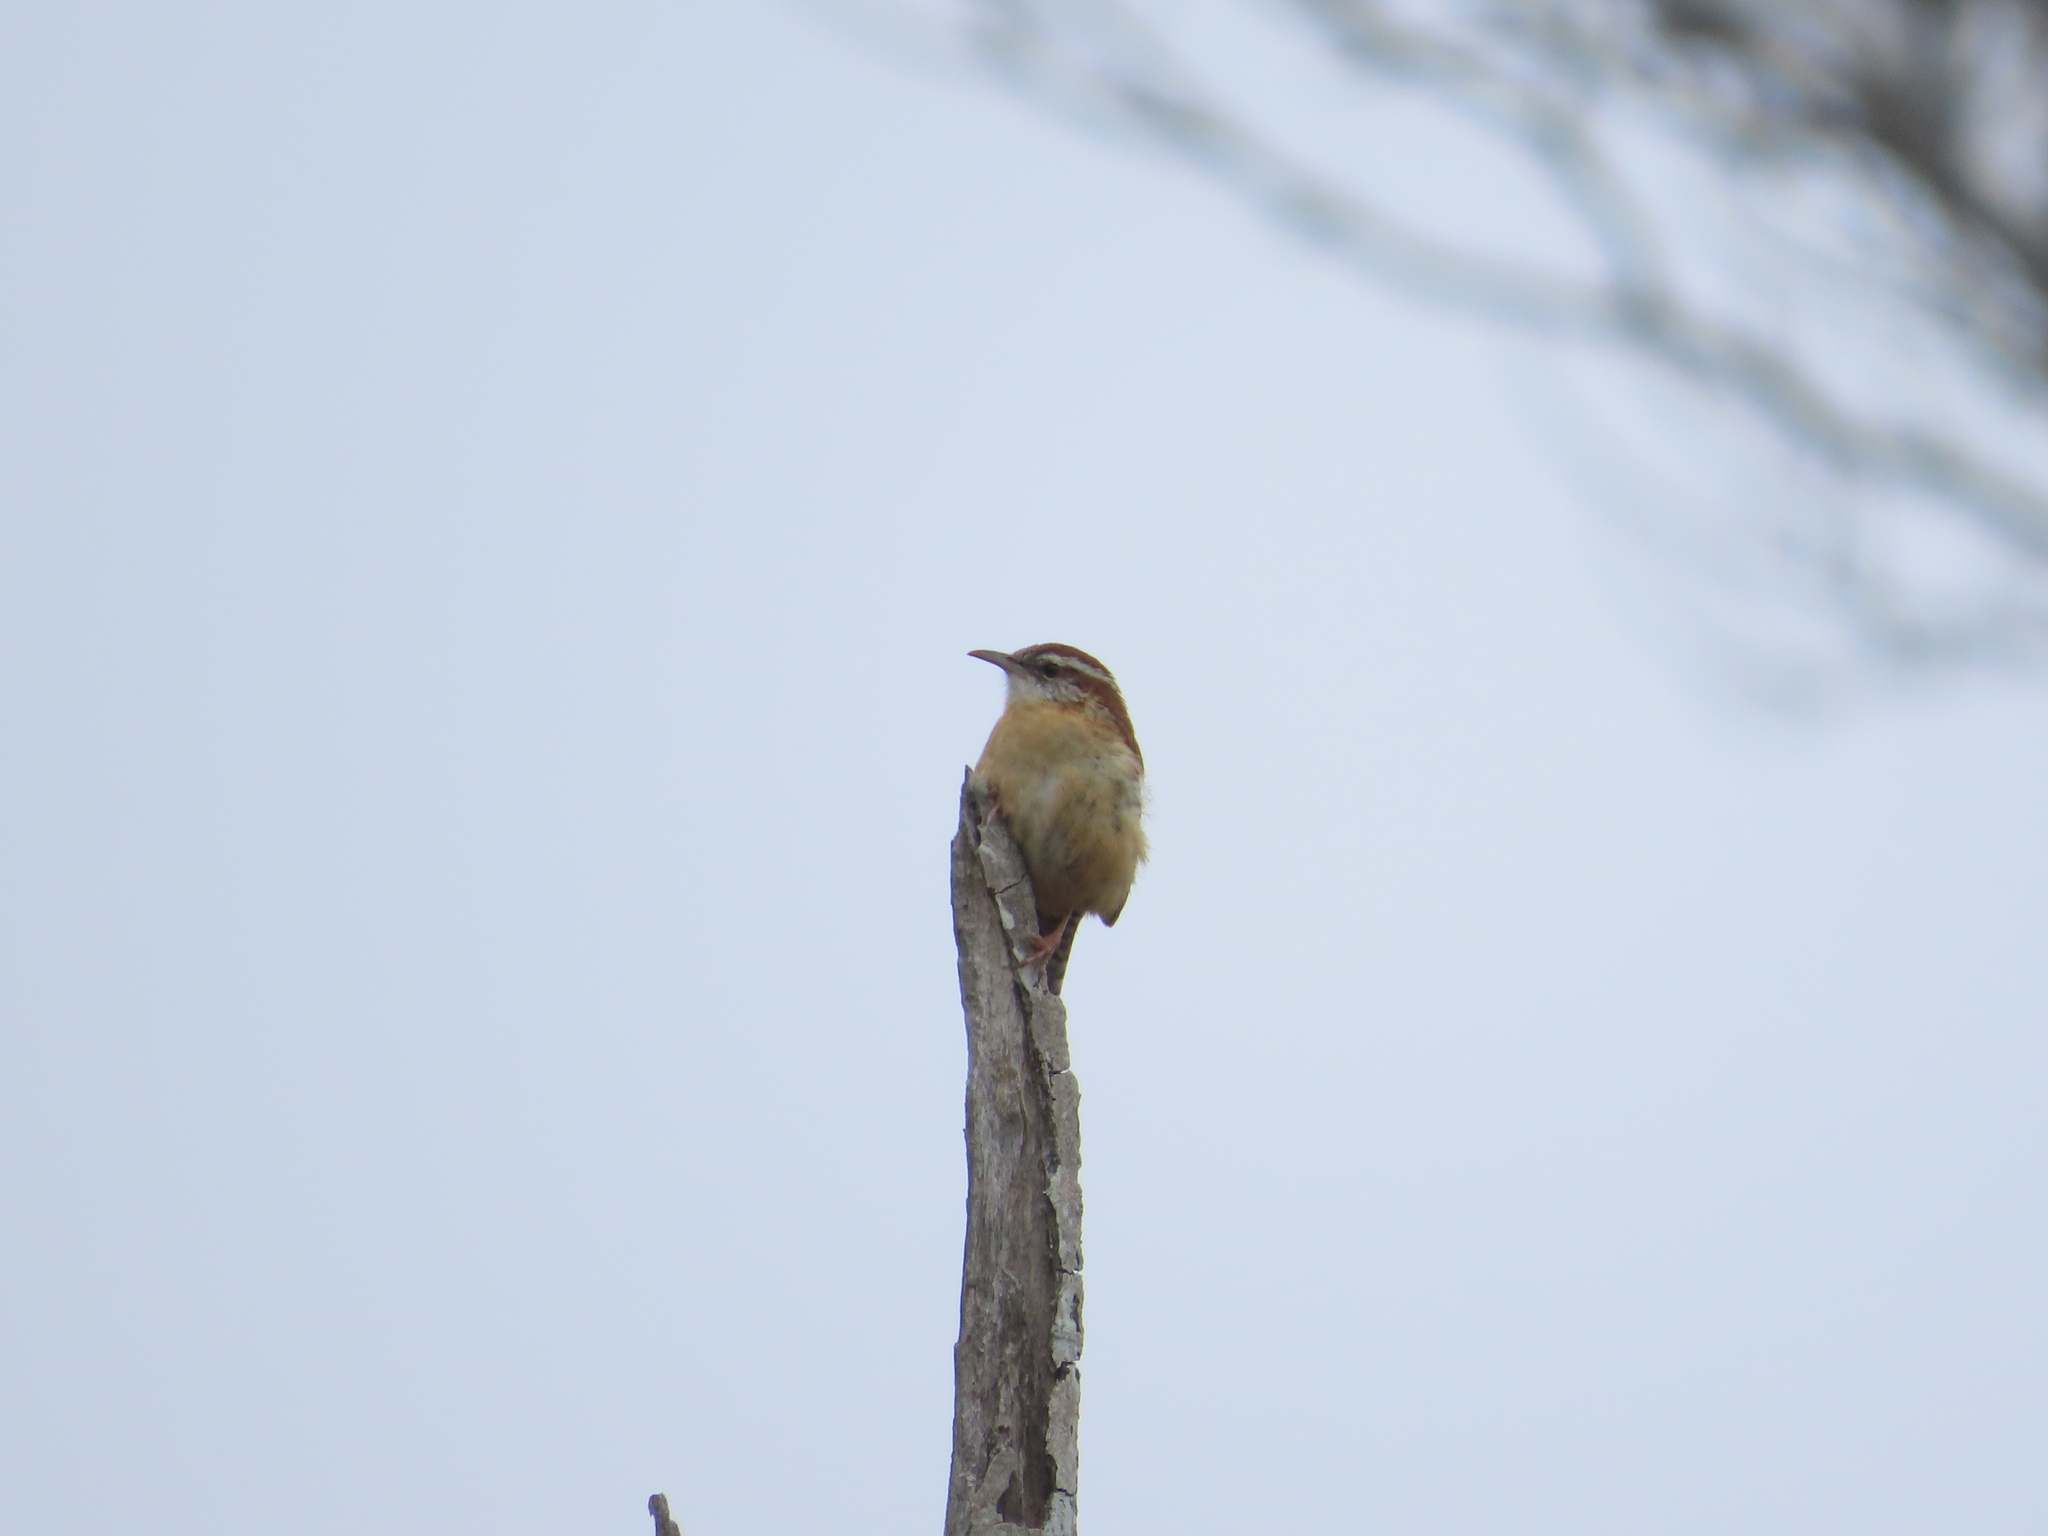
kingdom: Animalia
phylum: Chordata
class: Aves
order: Passeriformes
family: Troglodytidae
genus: Thryothorus
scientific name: Thryothorus ludovicianus
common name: Carolina wren
